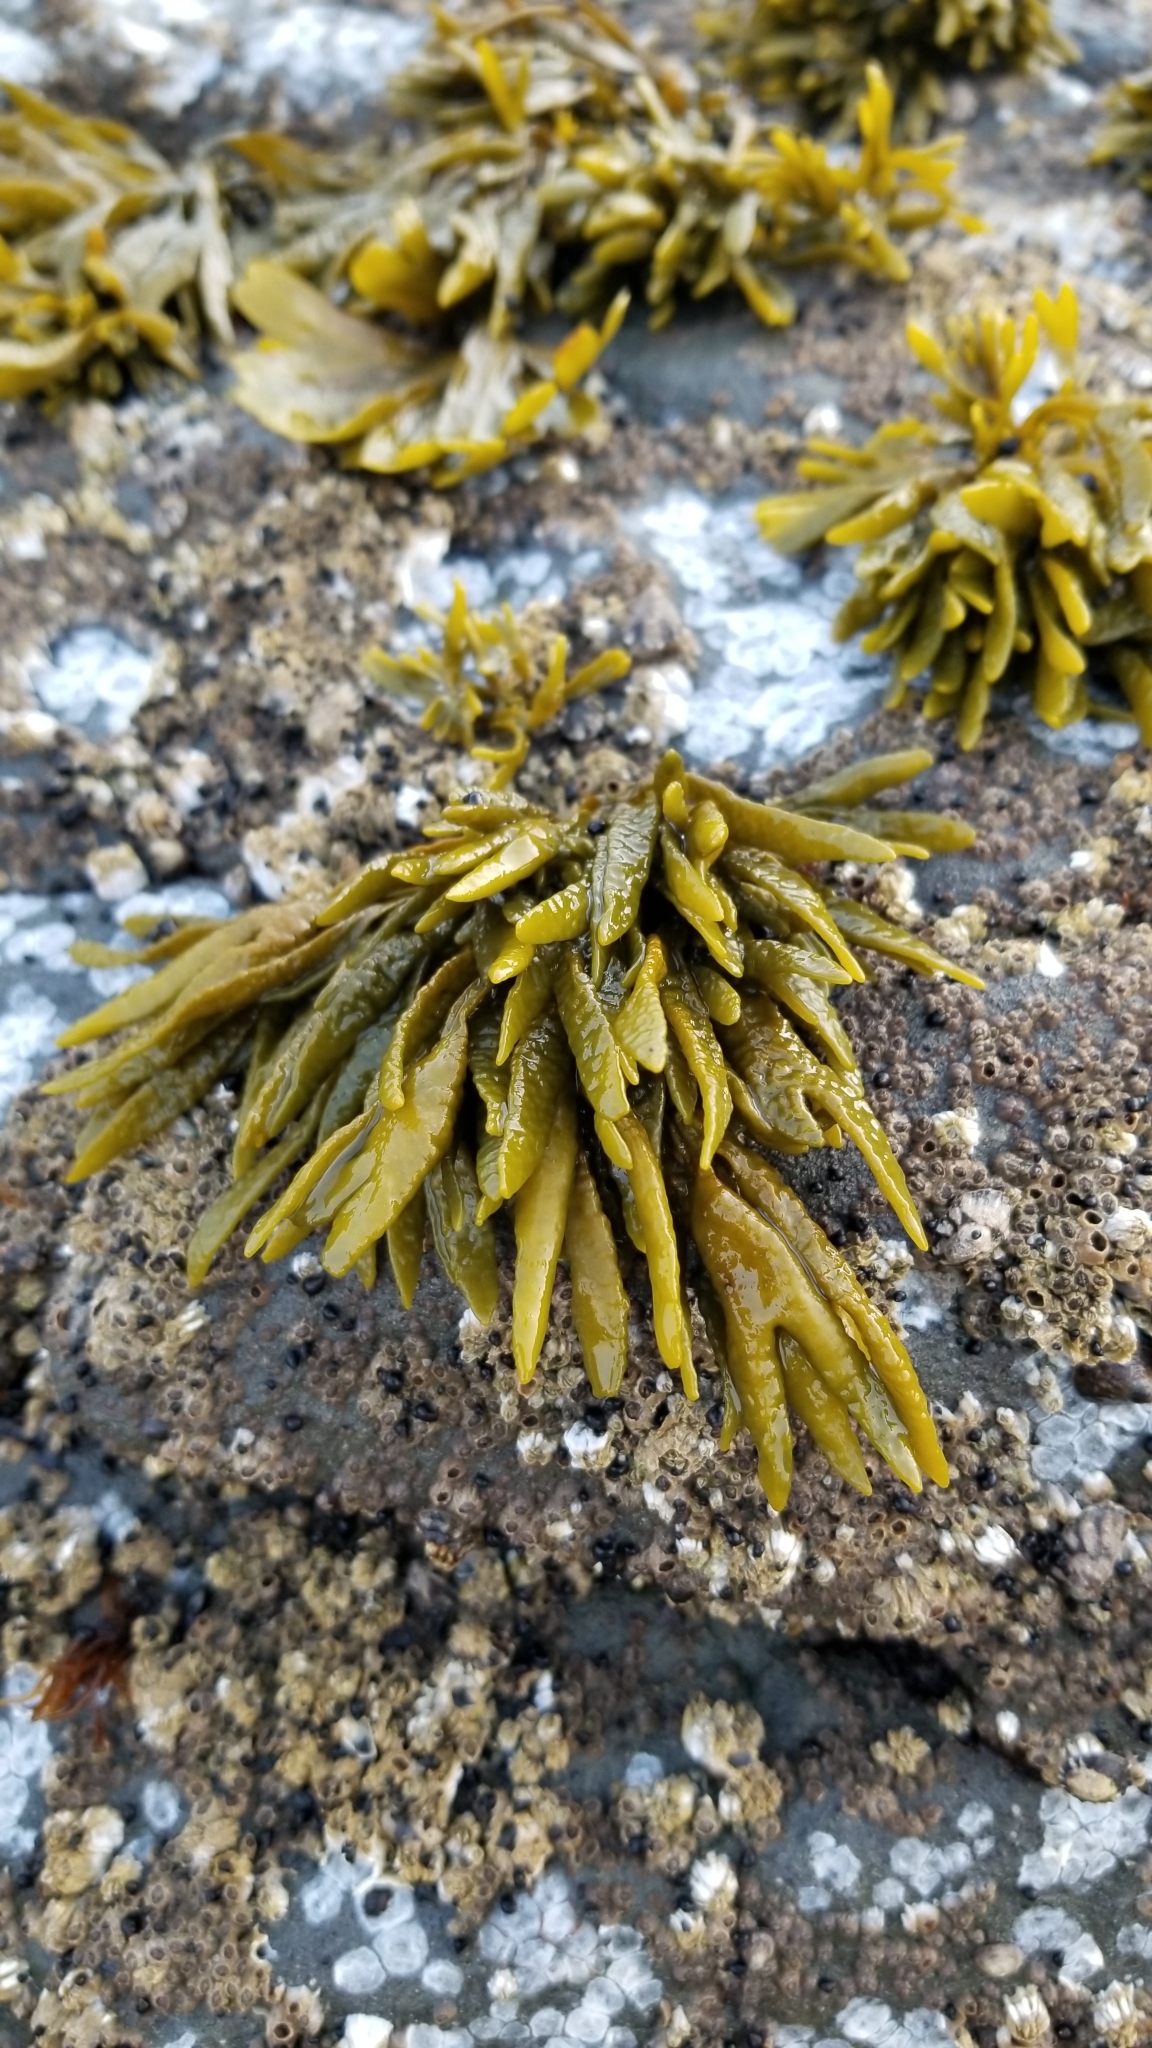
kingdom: Chromista
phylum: Ochrophyta
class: Phaeophyceae
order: Fucales
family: Fucaceae
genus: Pelvetiopsis
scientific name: Pelvetiopsis limitata
